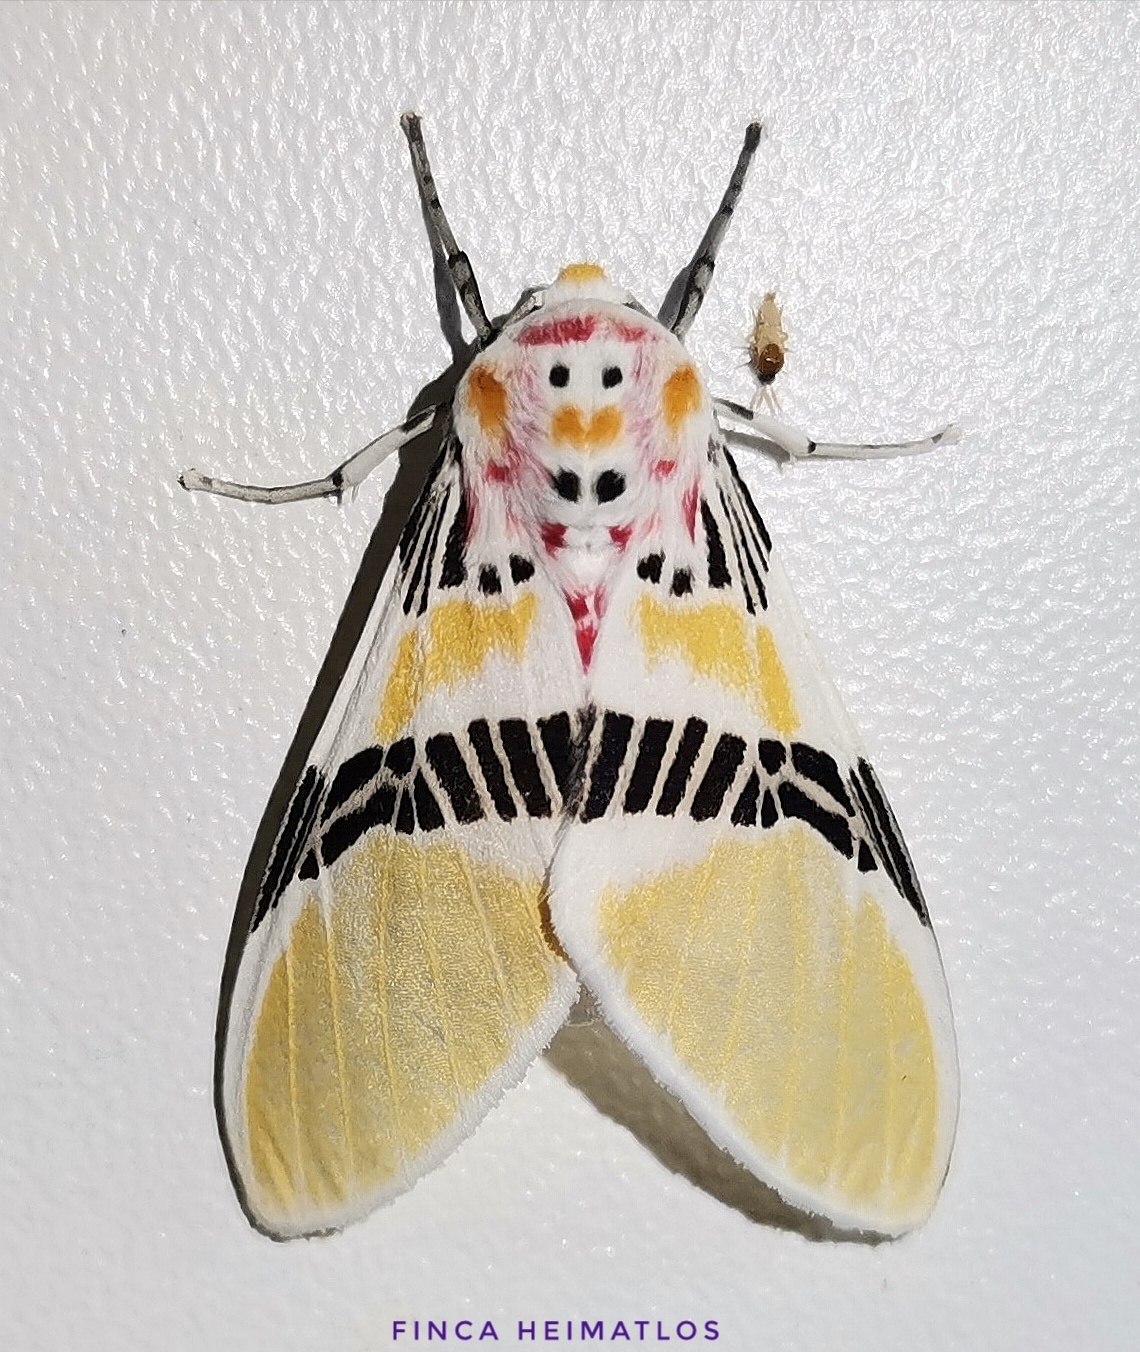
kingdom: Animalia
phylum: Arthropoda
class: Insecta
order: Lepidoptera
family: Erebidae
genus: Idalus
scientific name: Idalus herois
